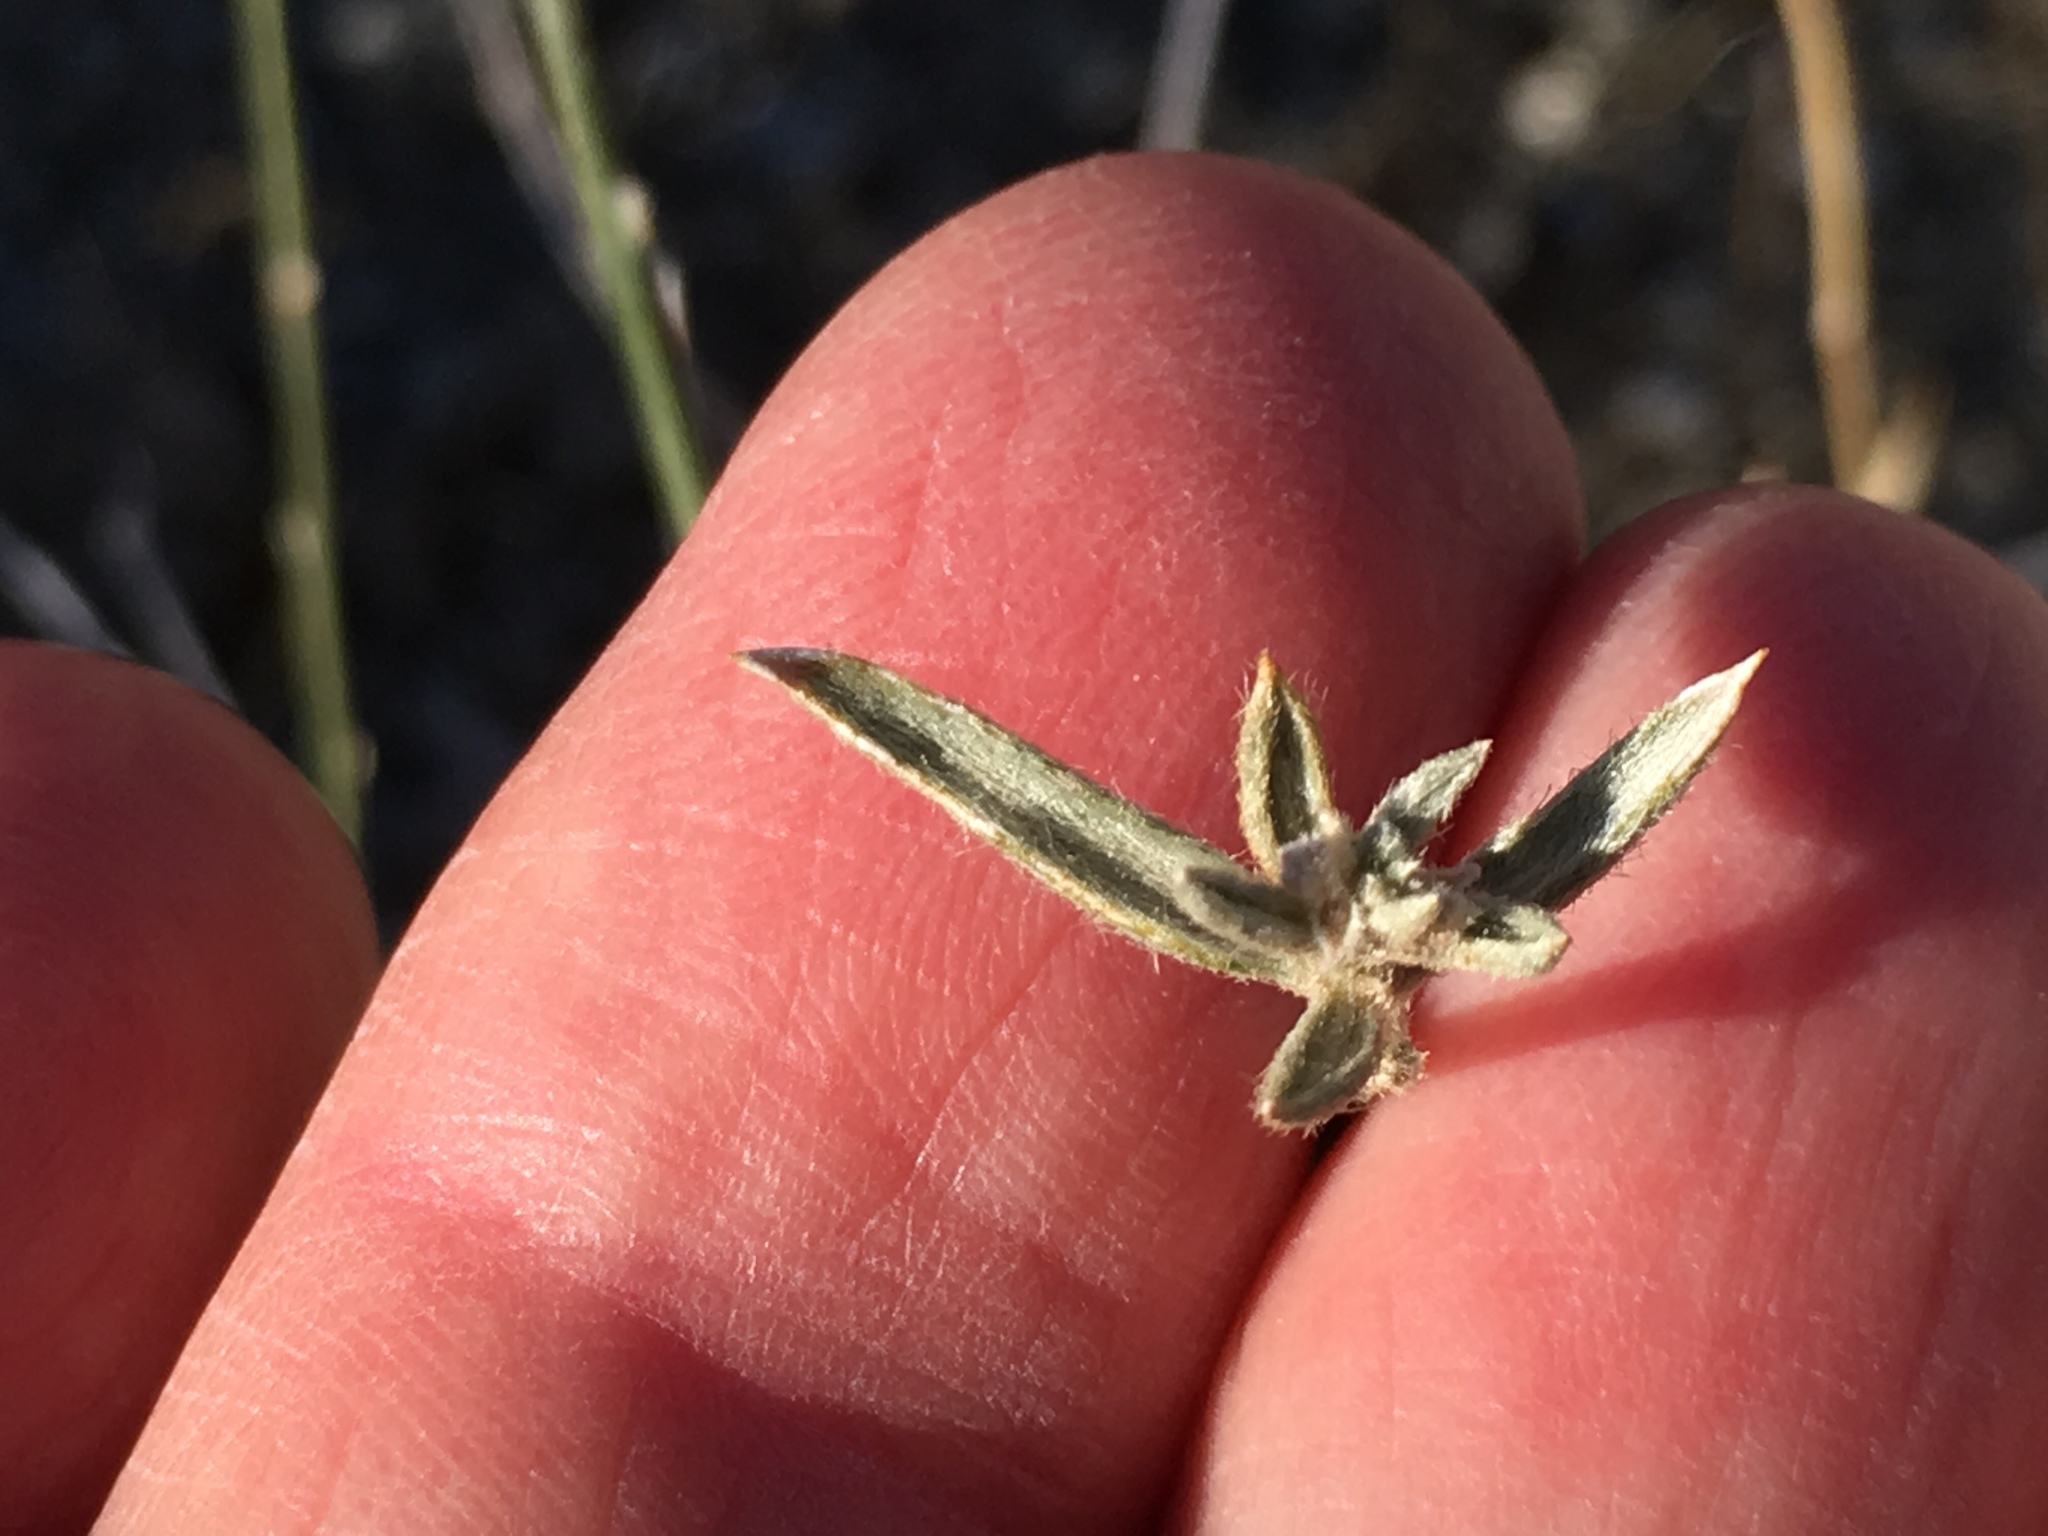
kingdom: Plantae
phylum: Tracheophyta
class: Magnoliopsida
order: Malpighiales
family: Euphorbiaceae
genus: Ditaxis
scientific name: Ditaxis lanceolata
